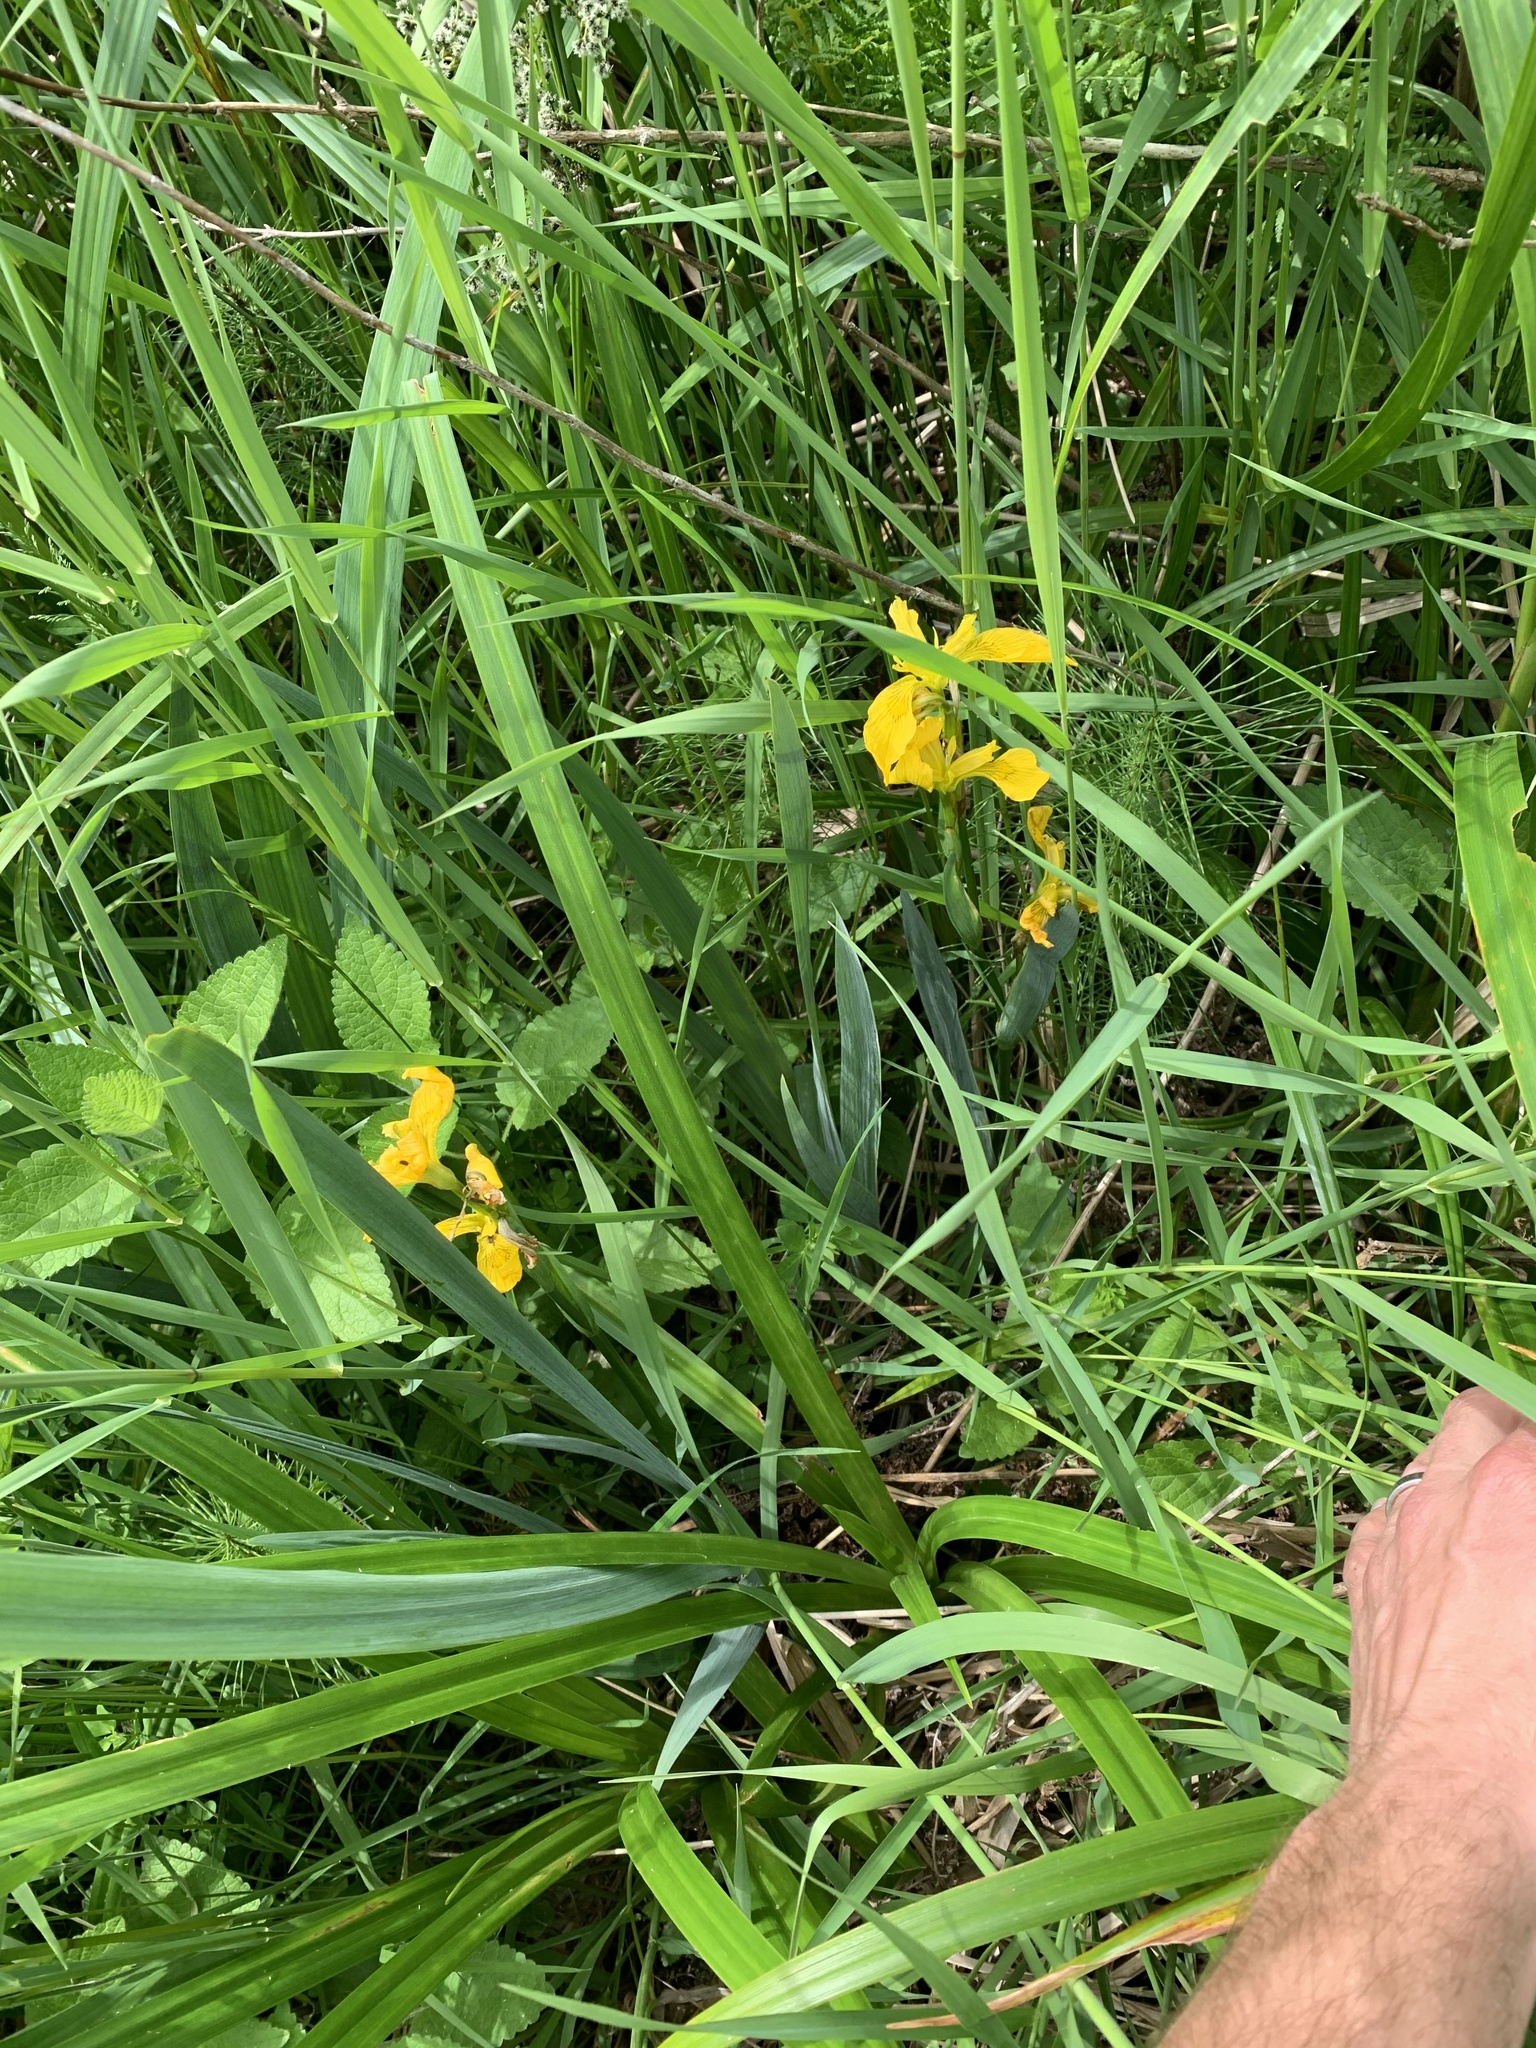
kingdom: Plantae
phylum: Tracheophyta
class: Liliopsida
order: Asparagales
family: Iridaceae
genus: Iris
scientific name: Iris pseudacorus
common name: Yellow flag
